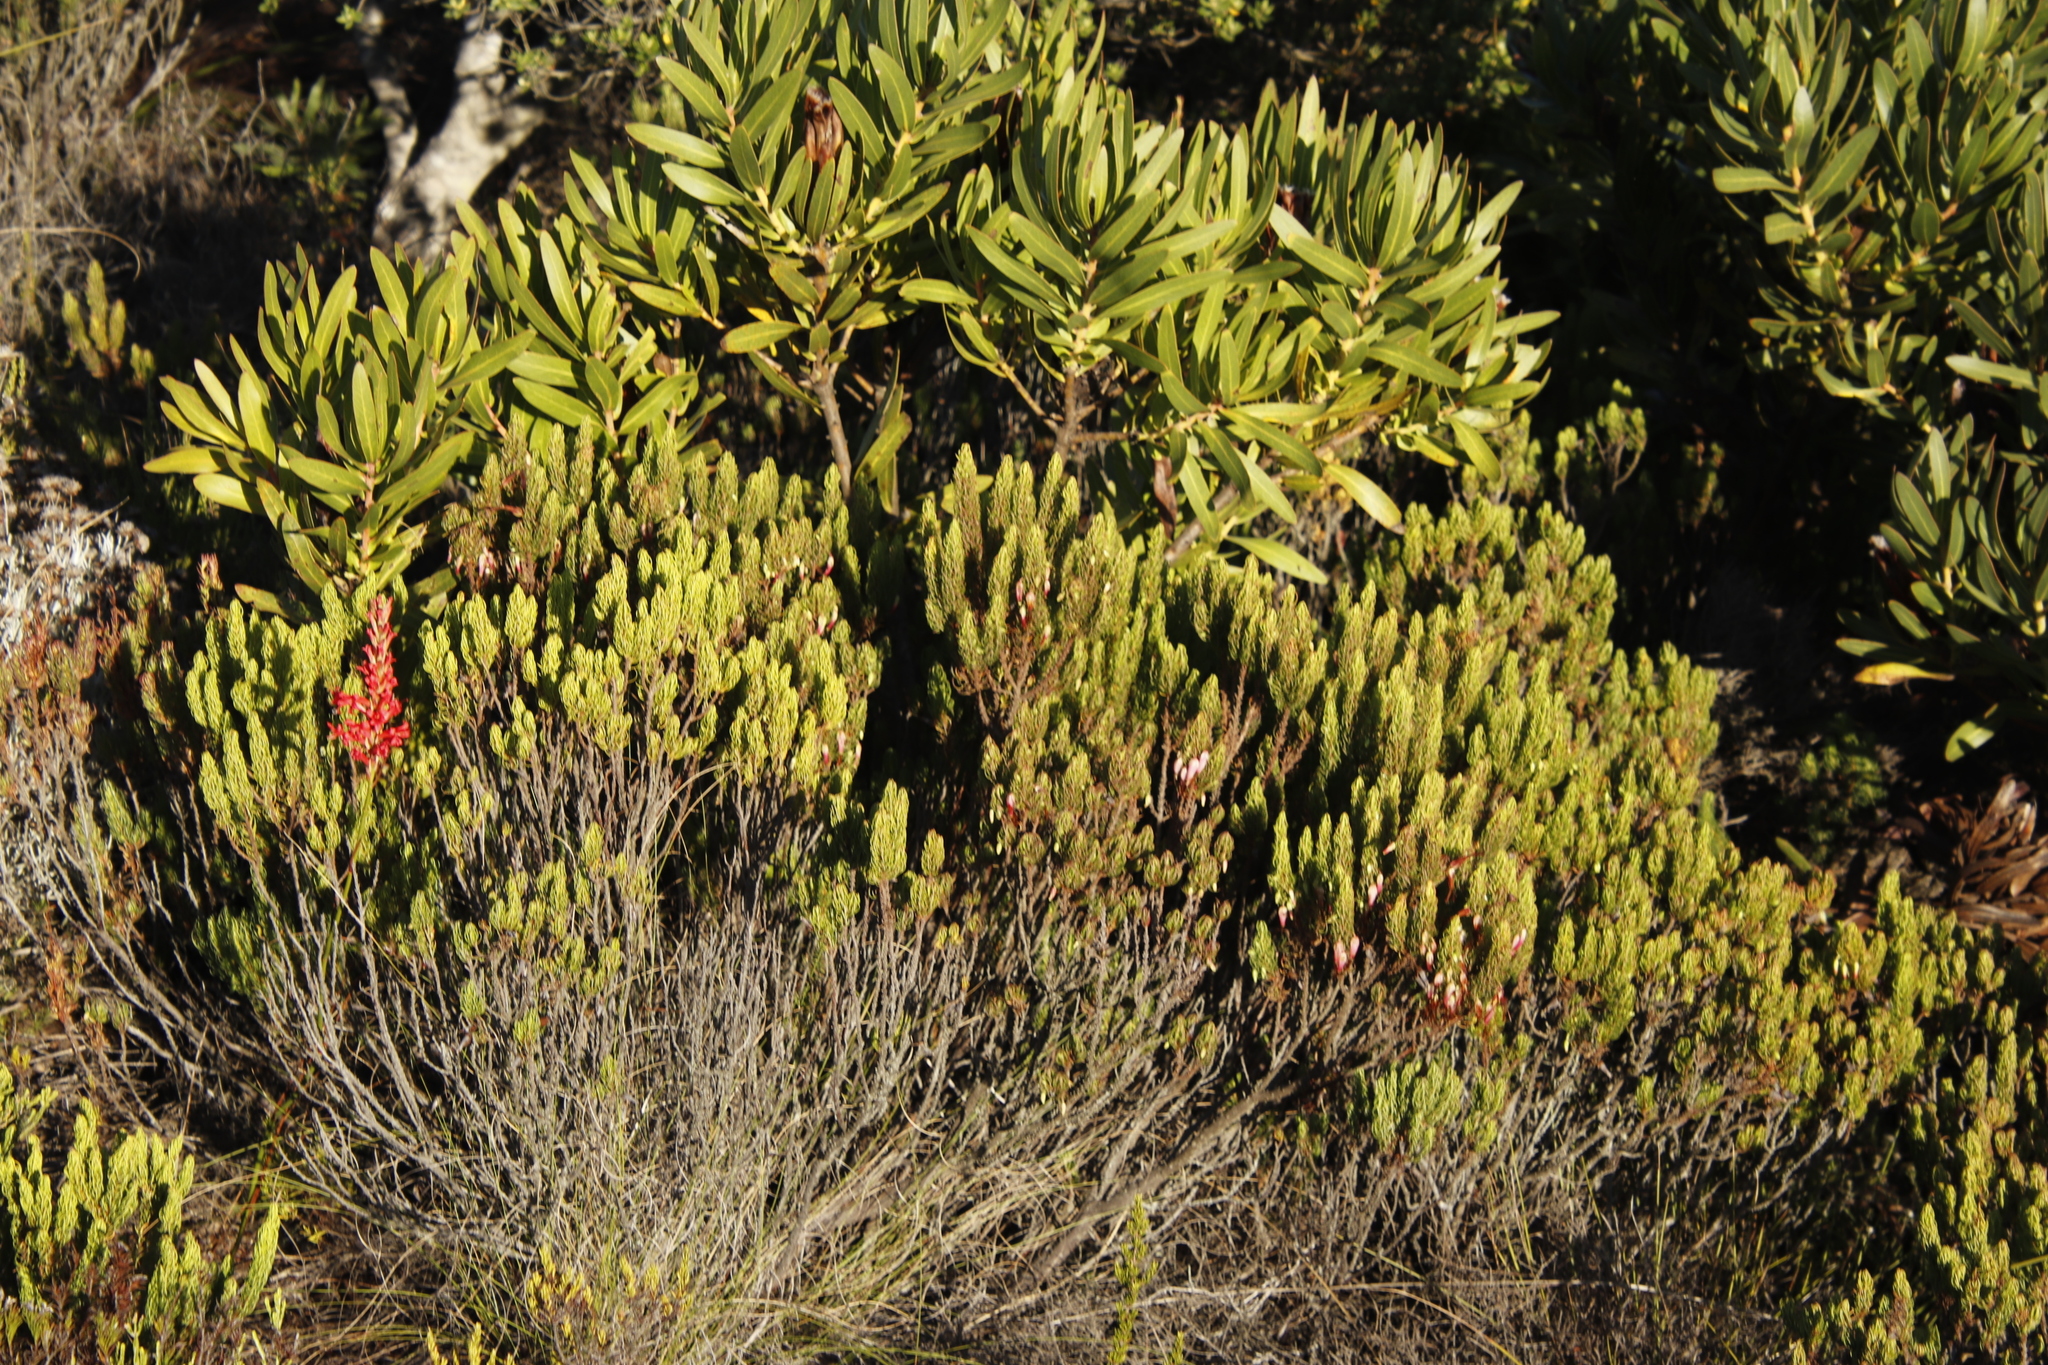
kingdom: Plantae
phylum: Tracheophyta
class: Magnoliopsida
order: Ericales
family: Ericaceae
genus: Erica
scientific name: Erica plukenetii
